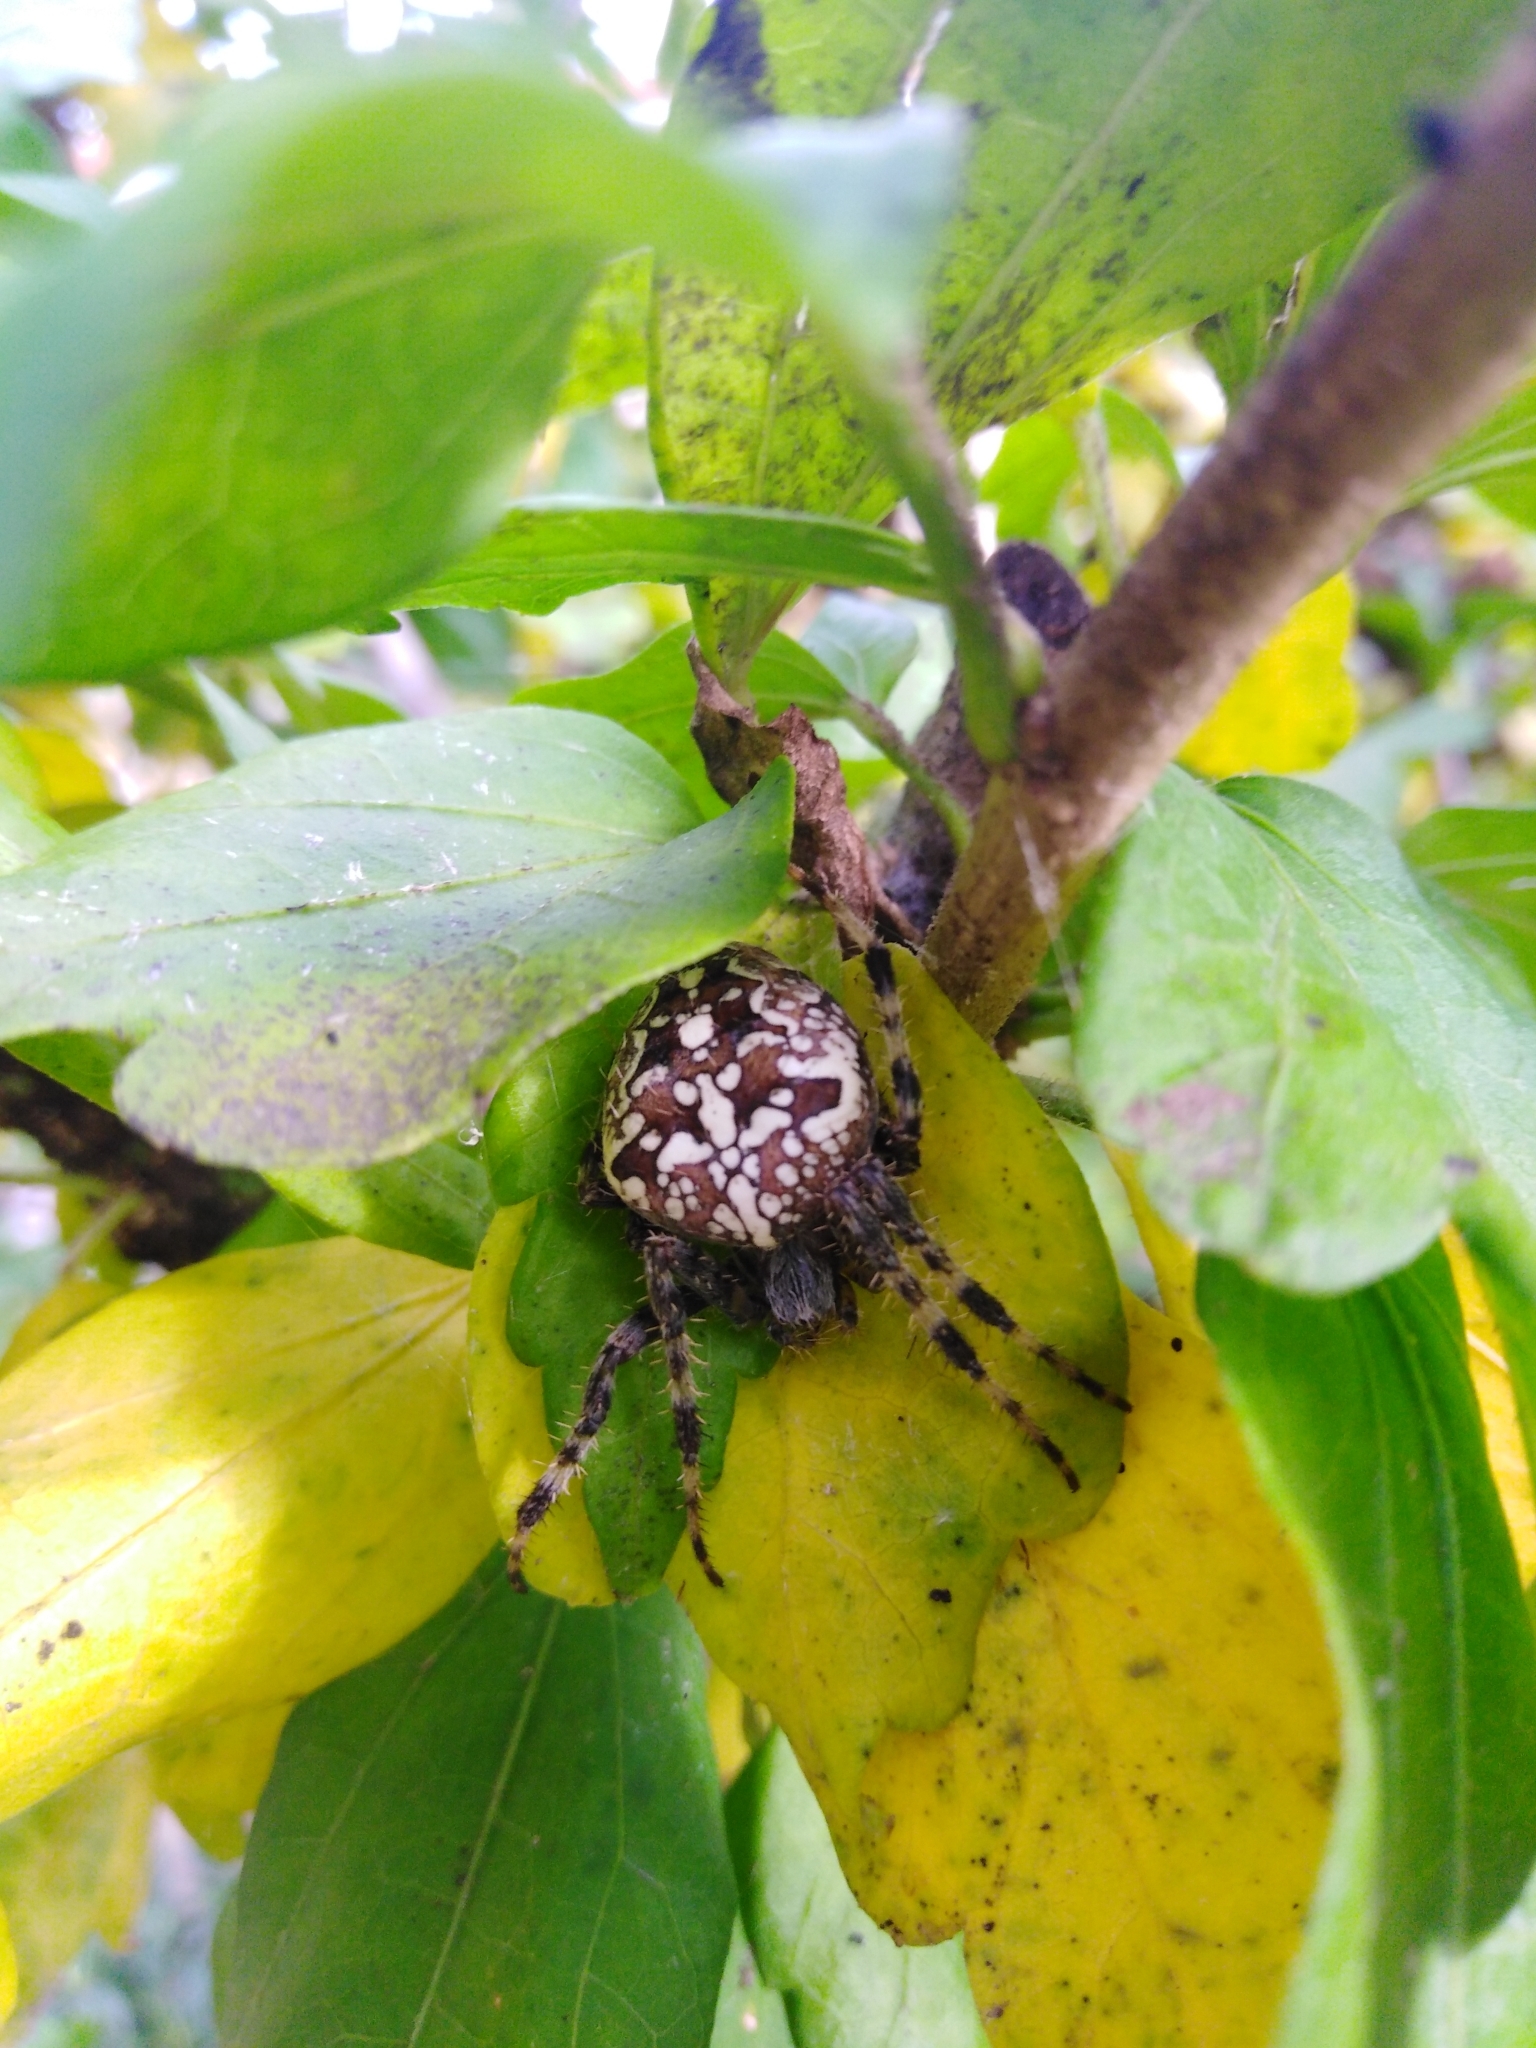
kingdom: Animalia
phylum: Arthropoda
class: Arachnida
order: Araneae
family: Araneidae
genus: Araneus
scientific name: Araneus diadematus
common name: Cross orbweaver
